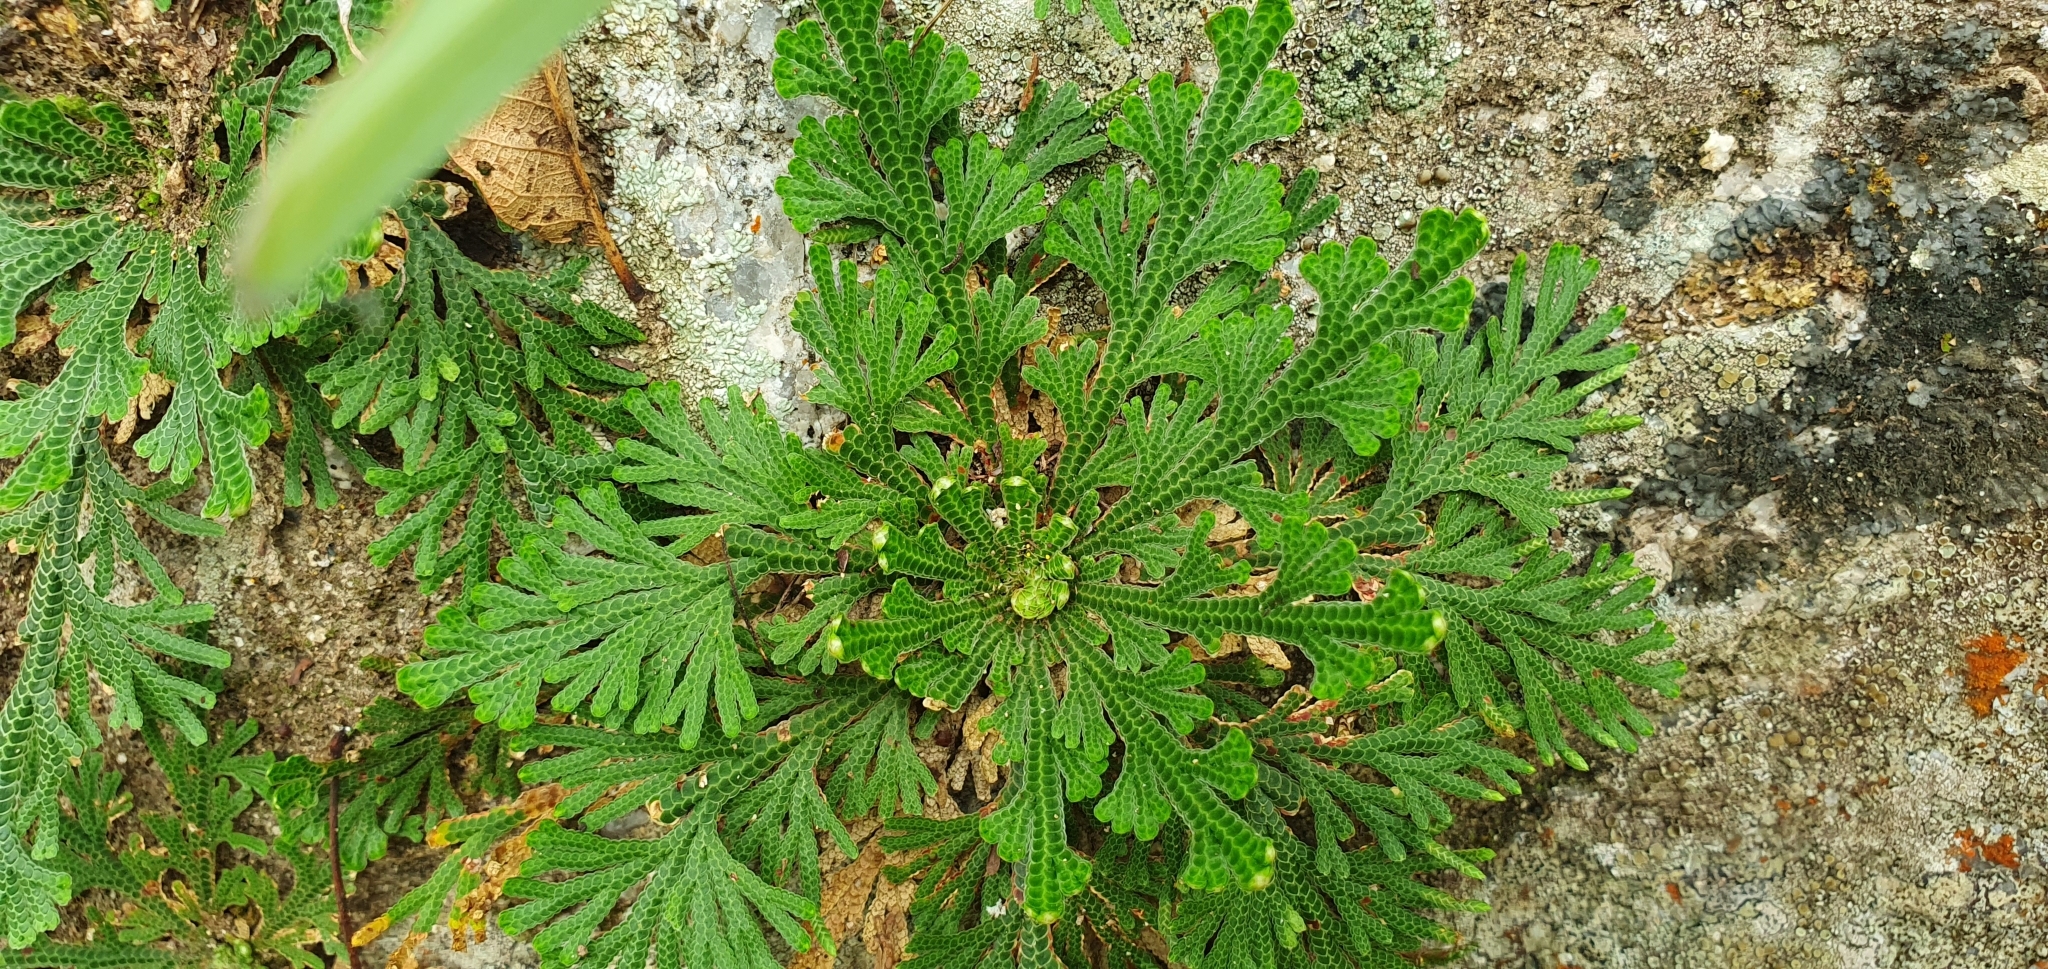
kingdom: Plantae
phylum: Tracheophyta
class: Lycopodiopsida
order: Selaginellales
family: Selaginellaceae
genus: Selaginella
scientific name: Selaginella lepidophylla
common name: Rose-of-jericho
